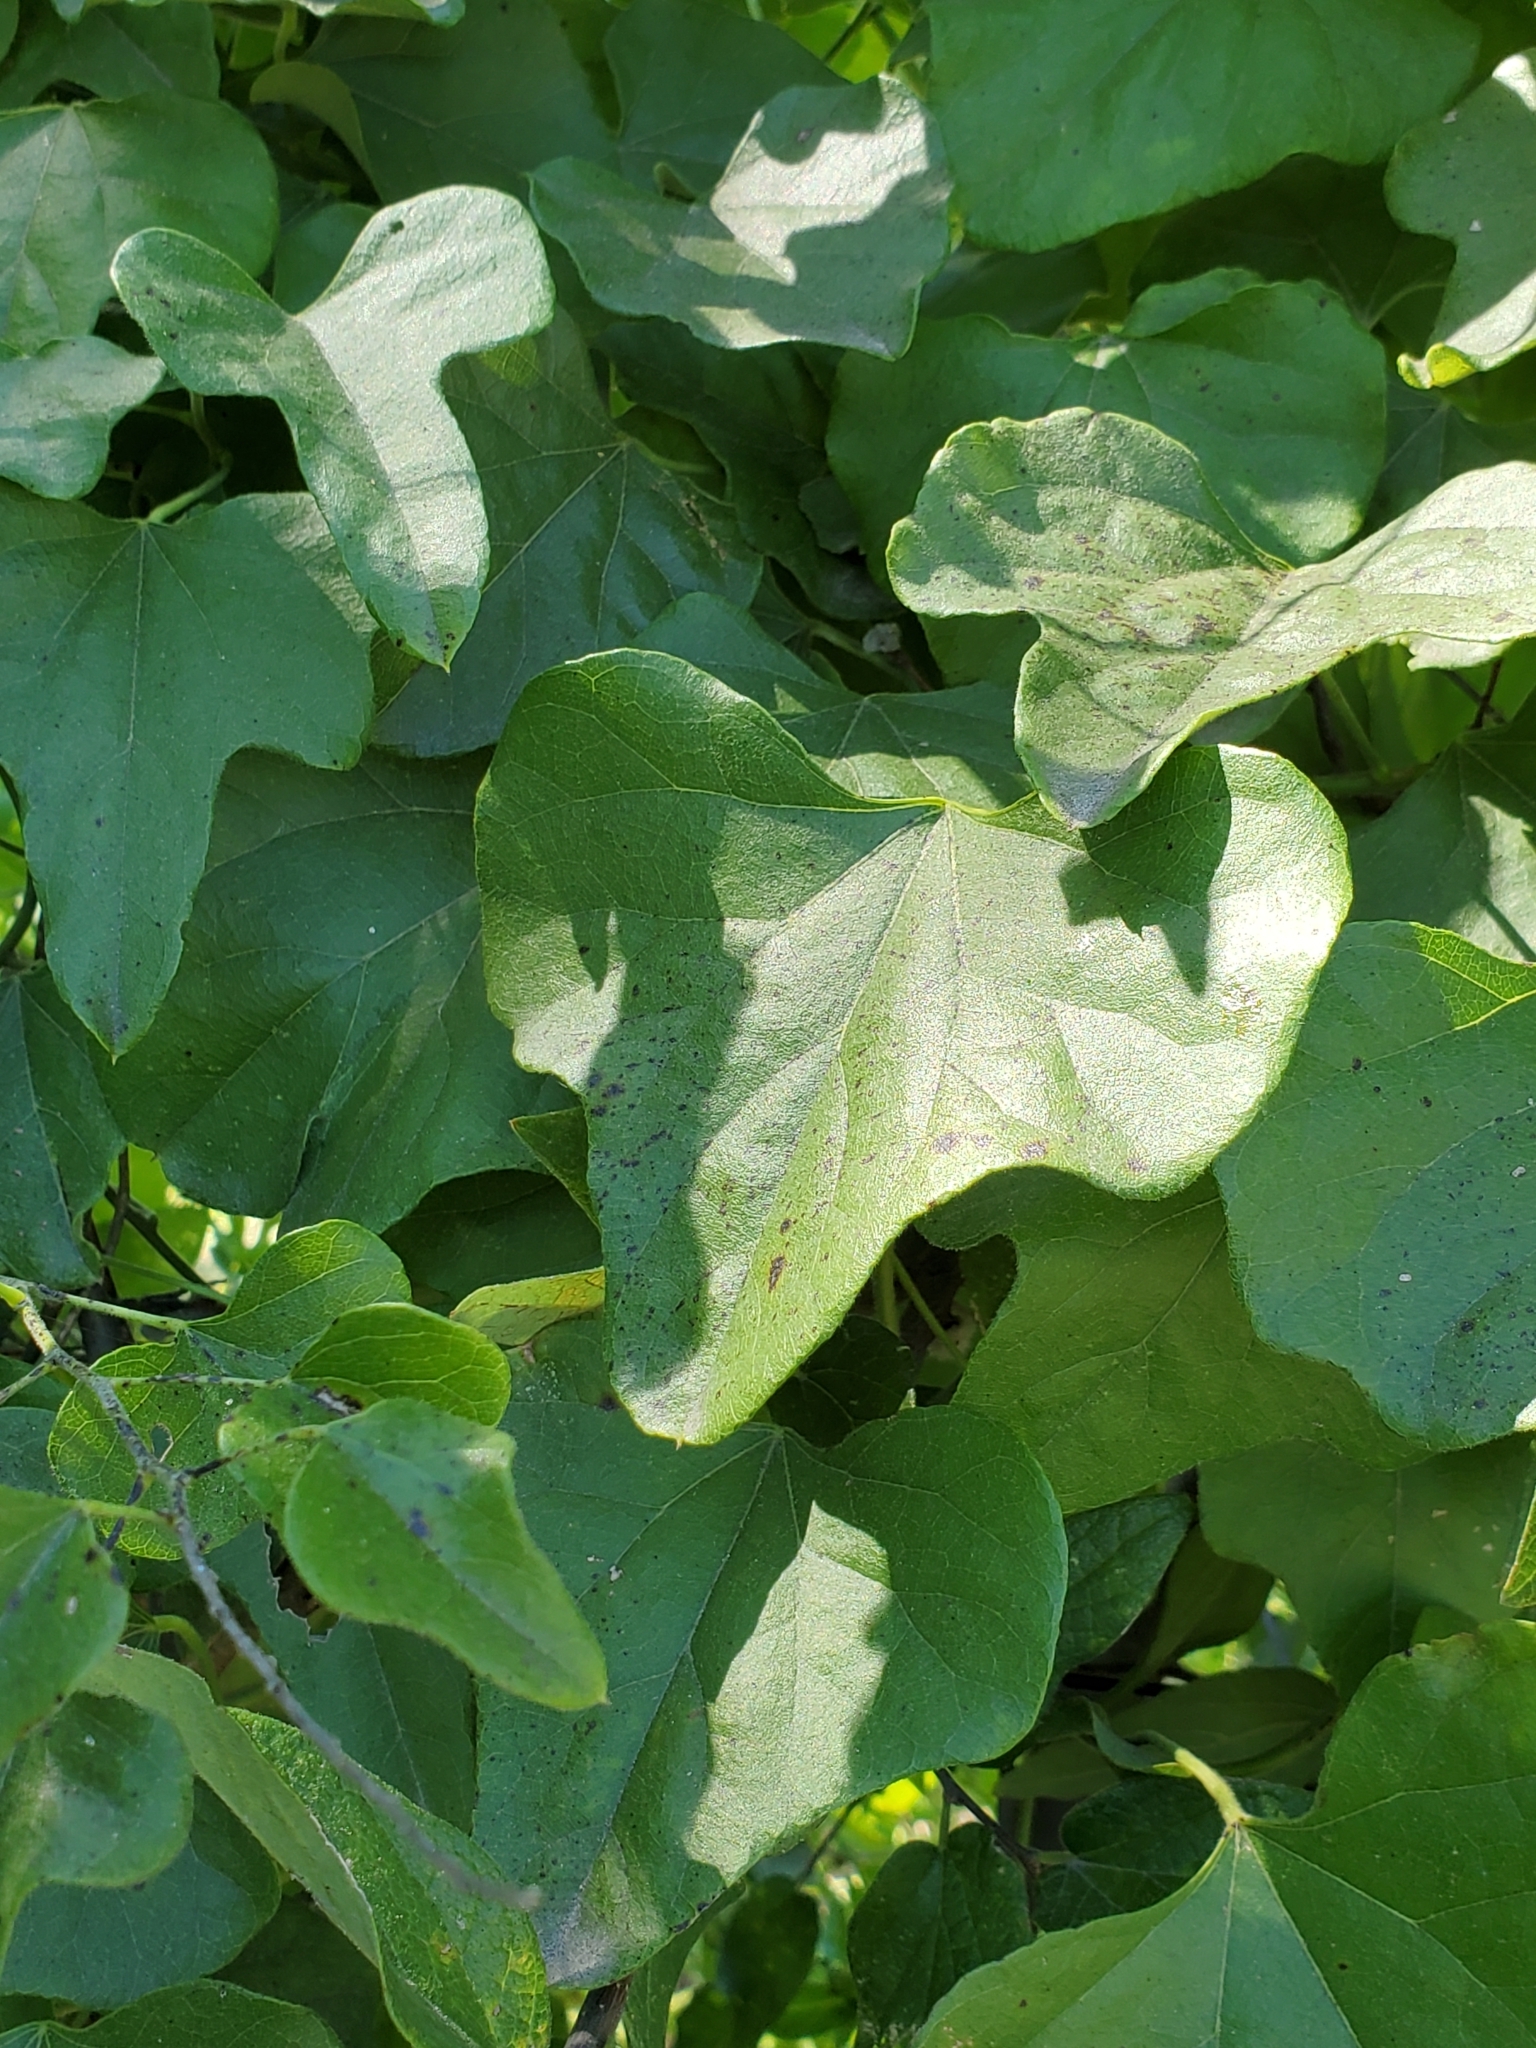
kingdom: Plantae
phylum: Tracheophyta
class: Magnoliopsida
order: Ranunculales
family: Menispermaceae
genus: Cocculus
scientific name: Cocculus carolinus
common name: Carolina moonseed
